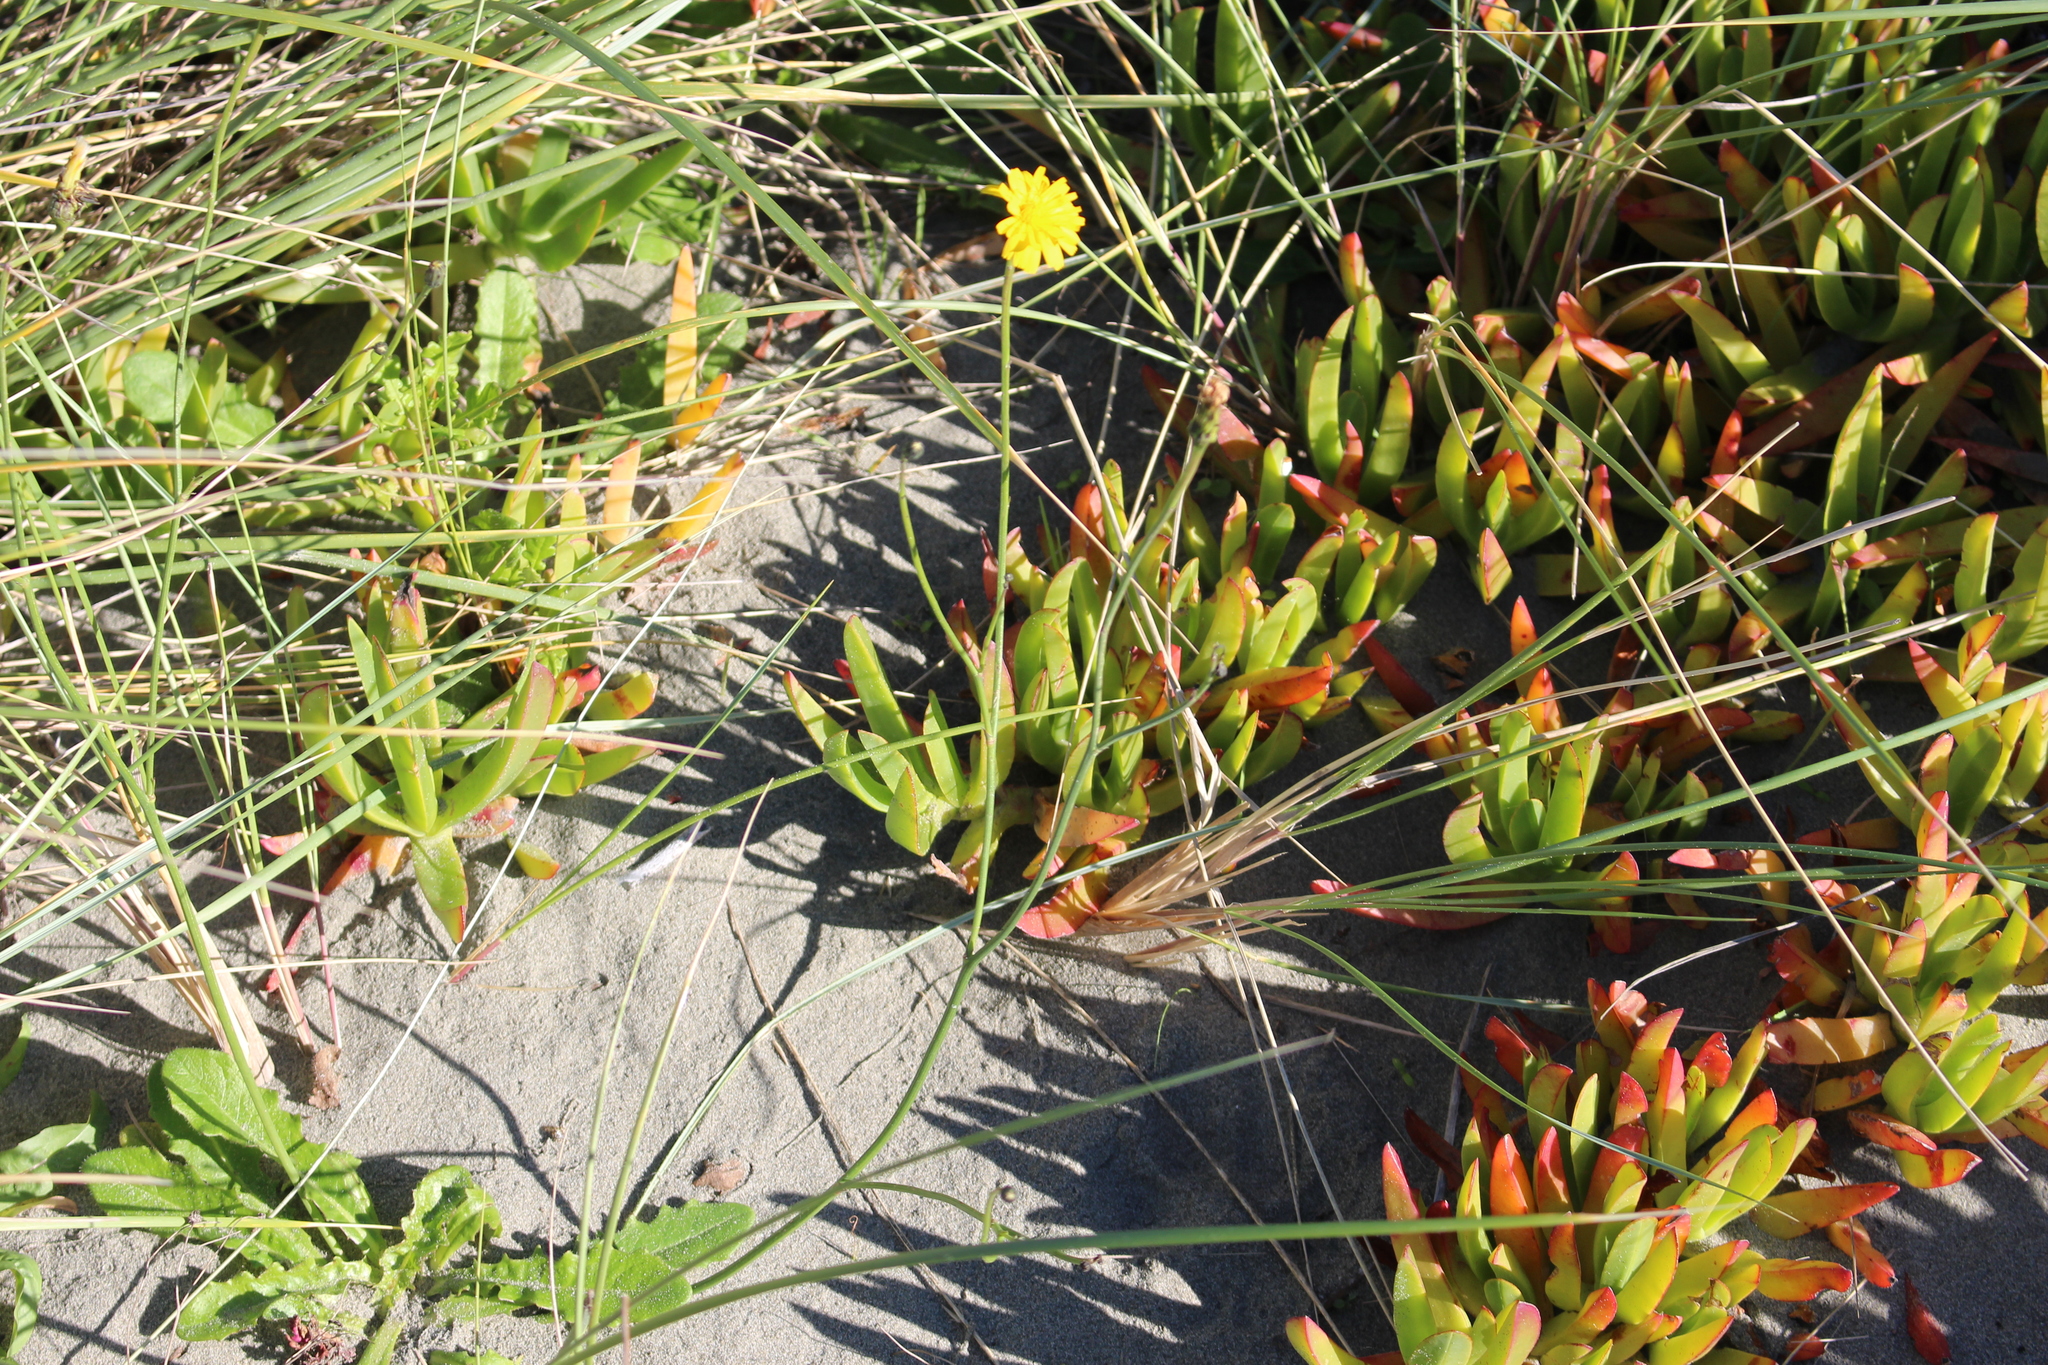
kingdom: Plantae
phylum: Tracheophyta
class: Magnoliopsida
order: Asterales
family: Asteraceae
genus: Hypochaeris
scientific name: Hypochaeris radicata
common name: Flatweed
